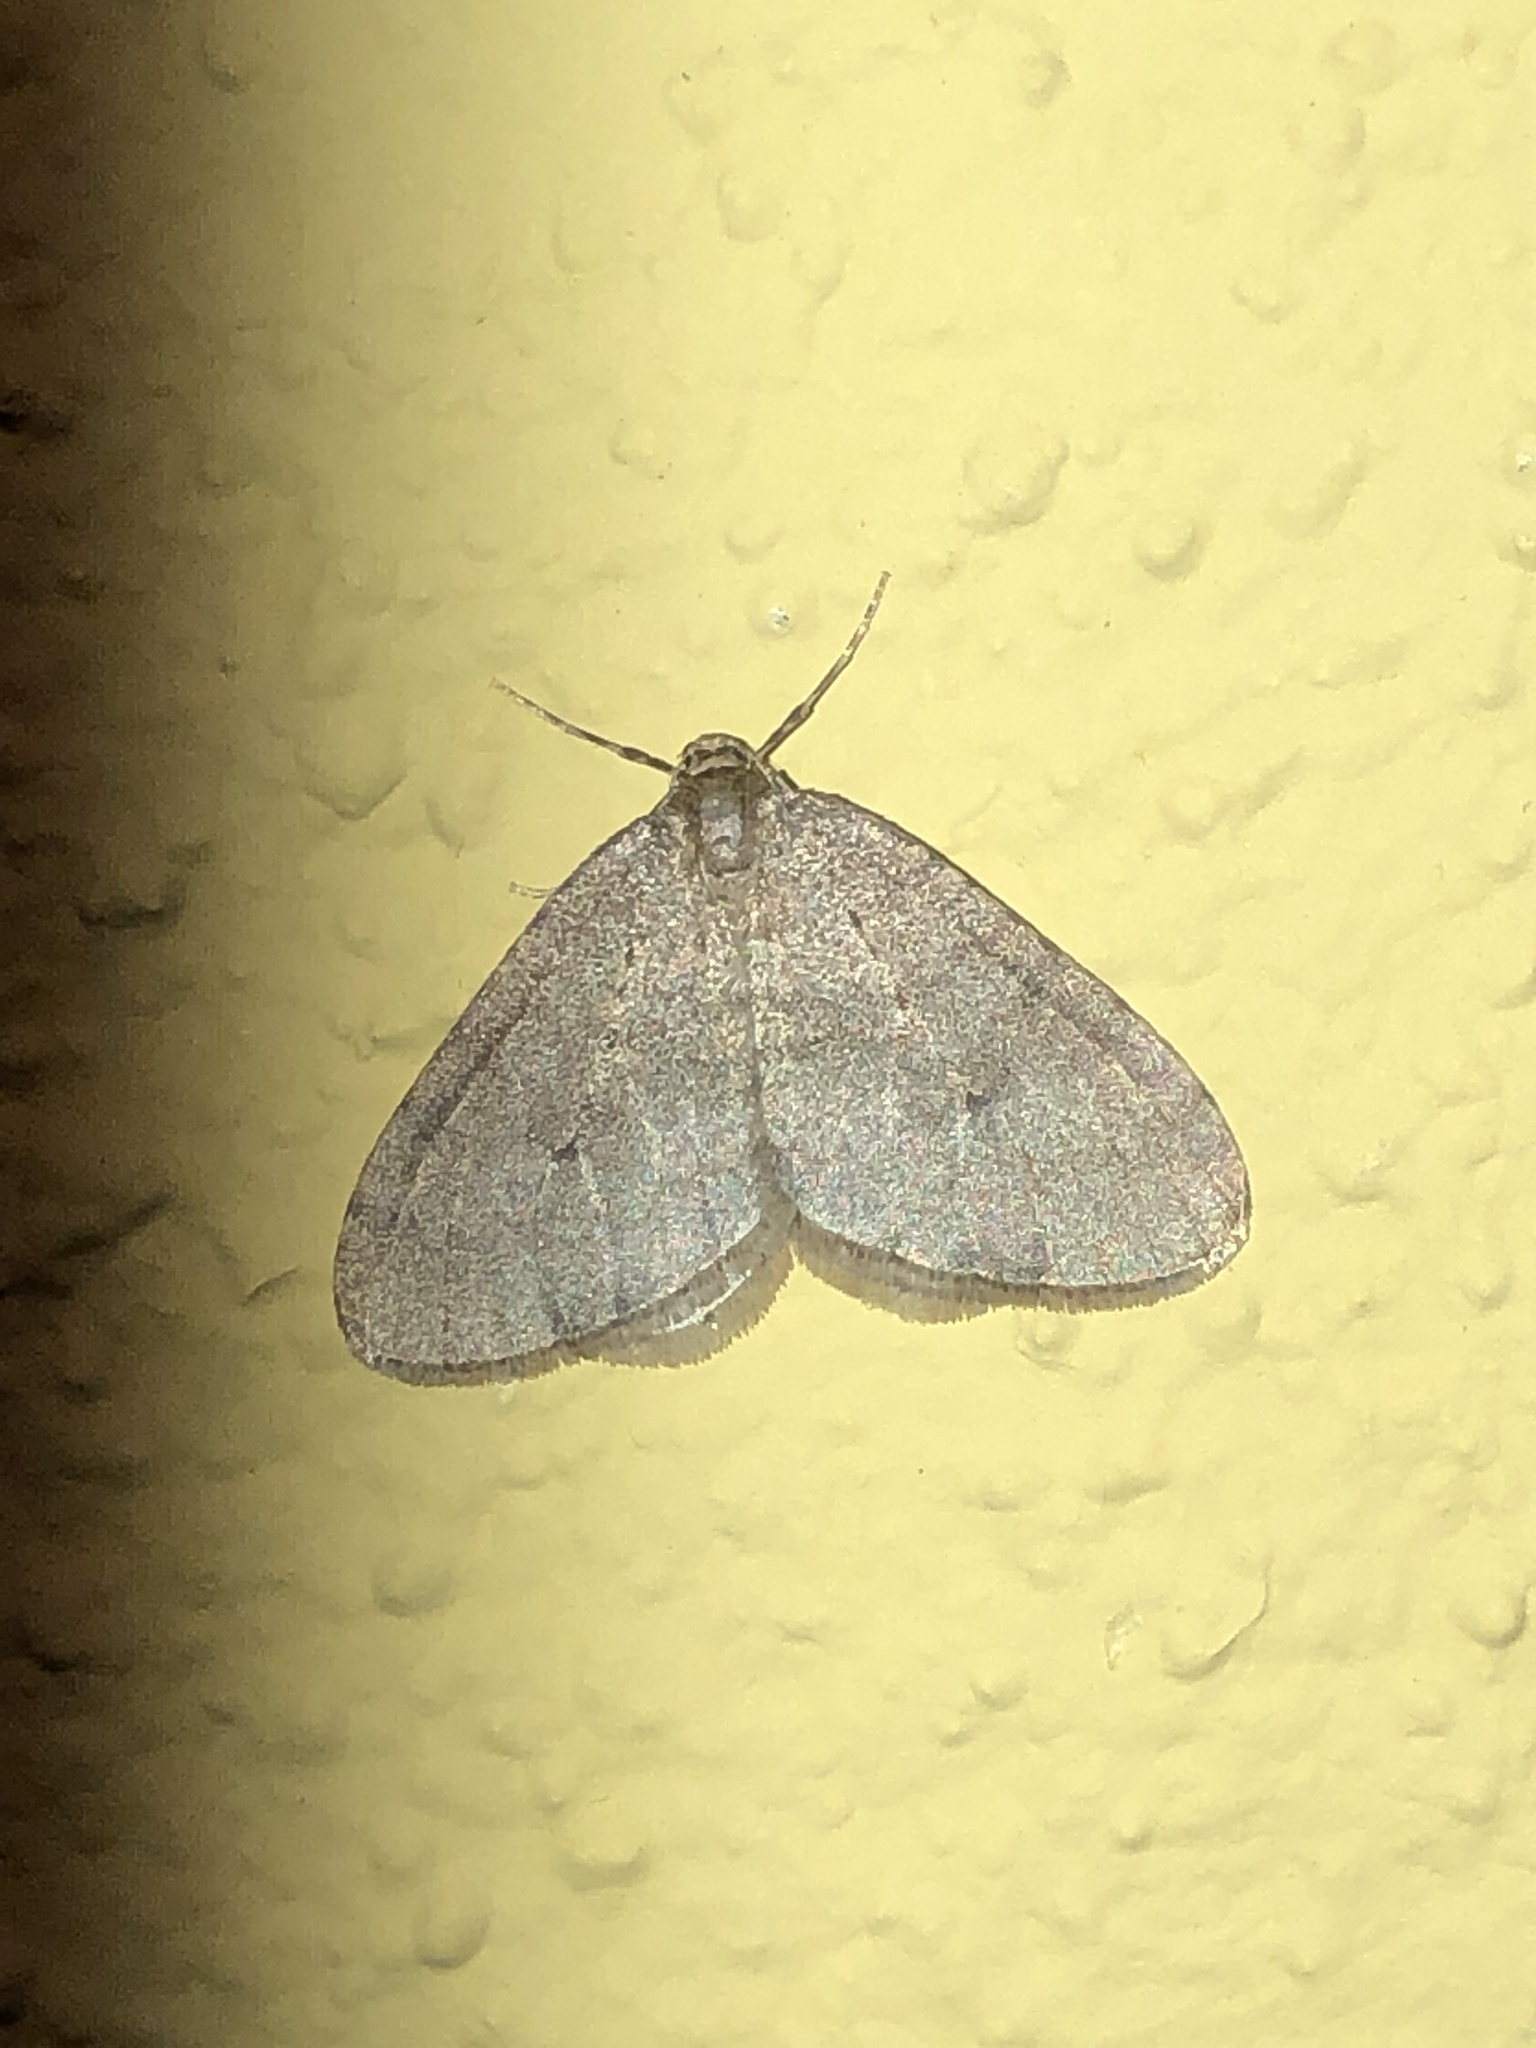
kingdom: Animalia
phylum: Arthropoda
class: Insecta
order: Lepidoptera
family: Geometridae
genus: Operophtera
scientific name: Operophtera brumata
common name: Winter moth
